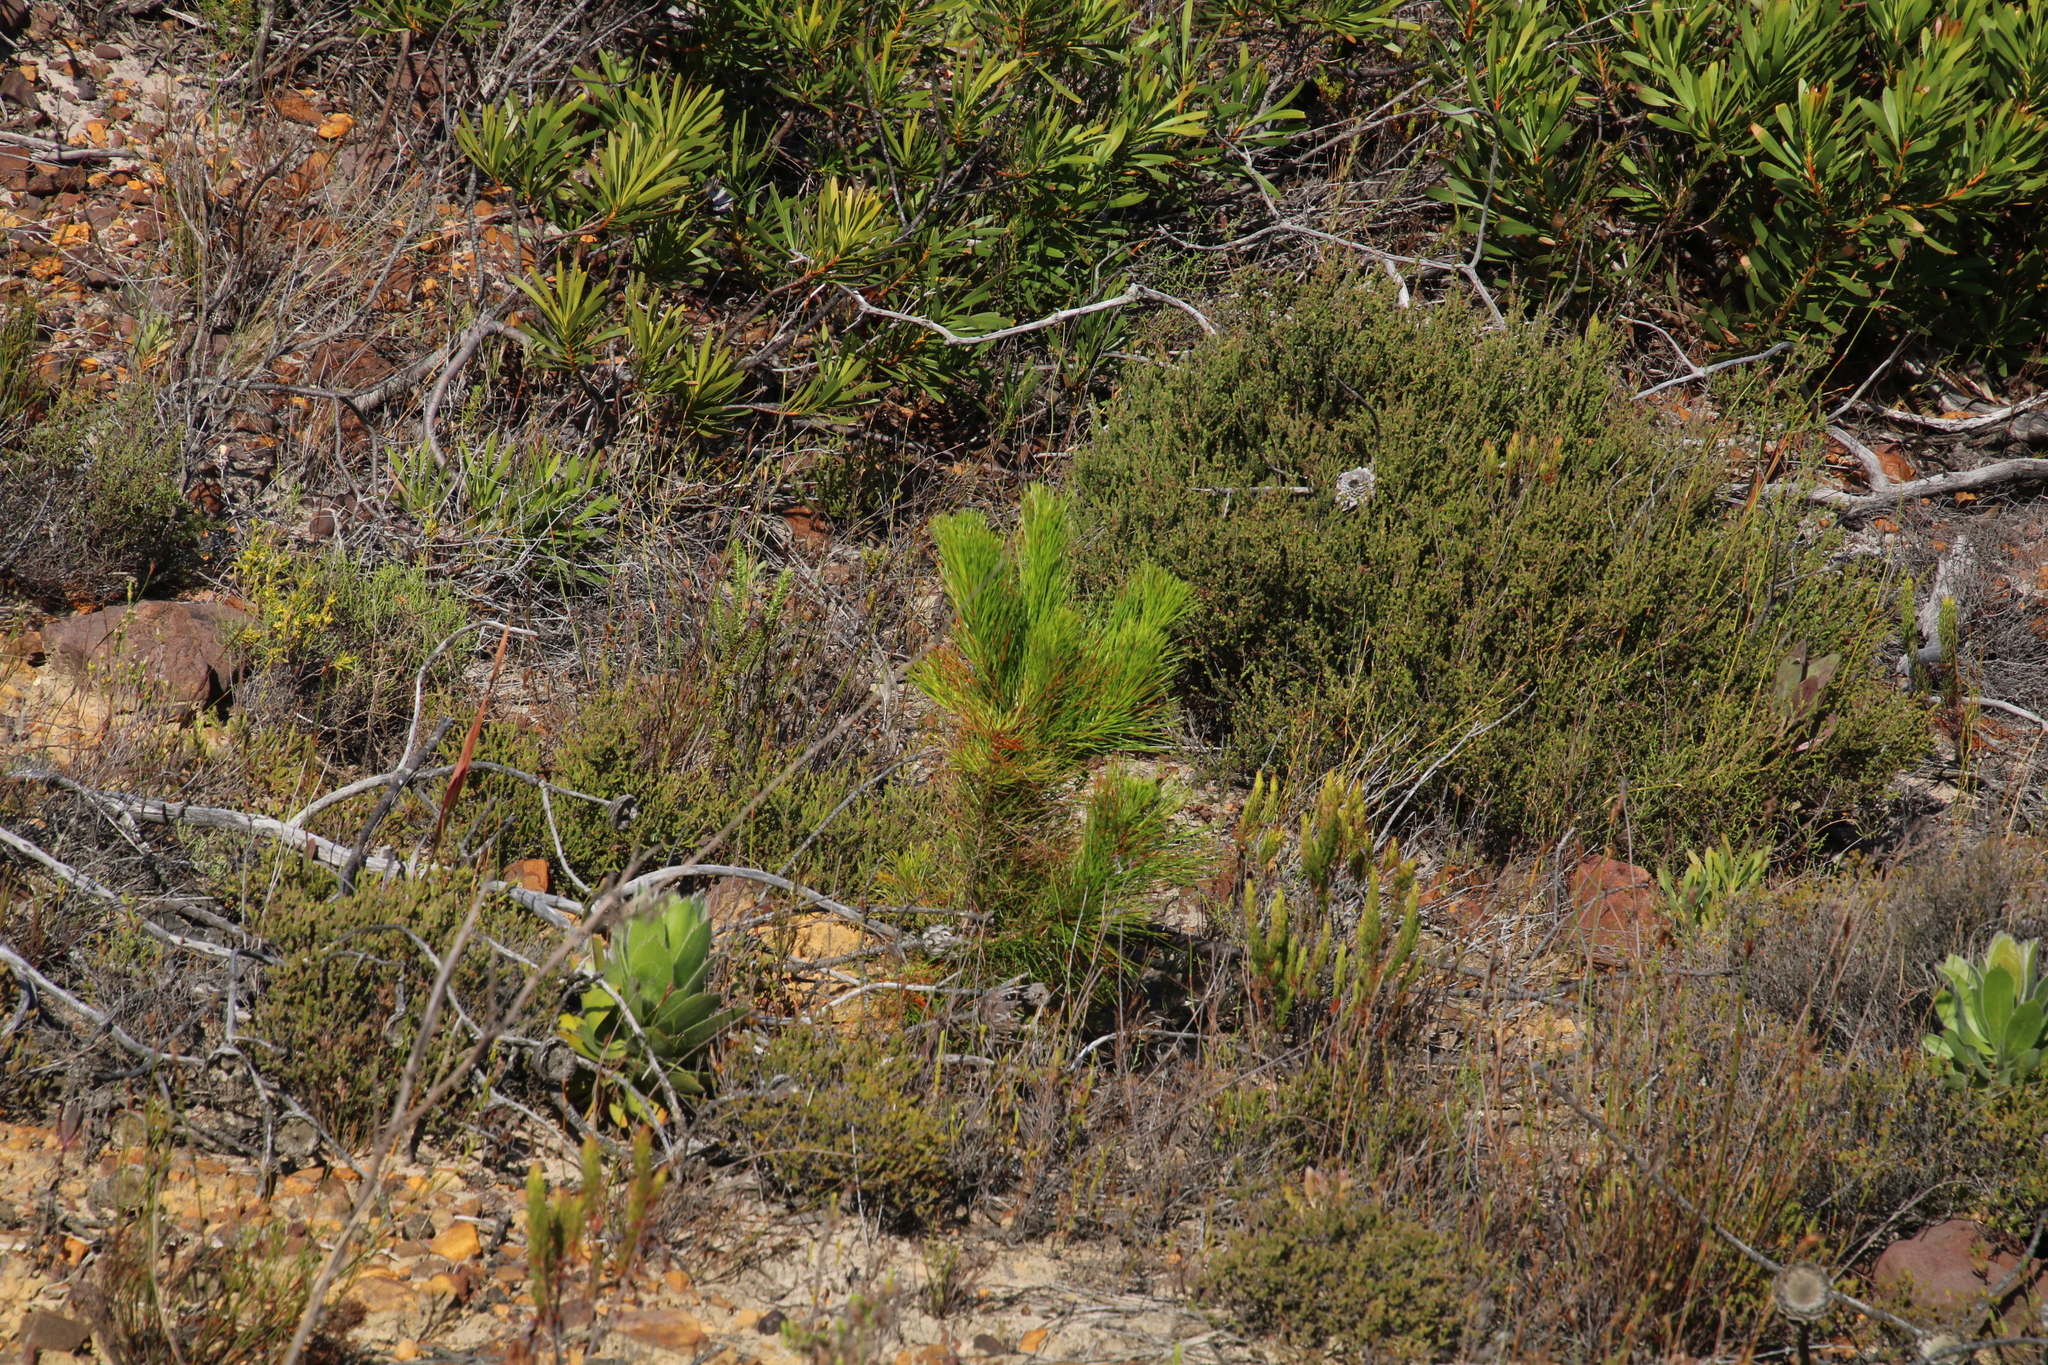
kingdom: Plantae
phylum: Tracheophyta
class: Pinopsida
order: Pinales
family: Pinaceae
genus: Pinus
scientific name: Pinus radiata
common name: Monterey pine
